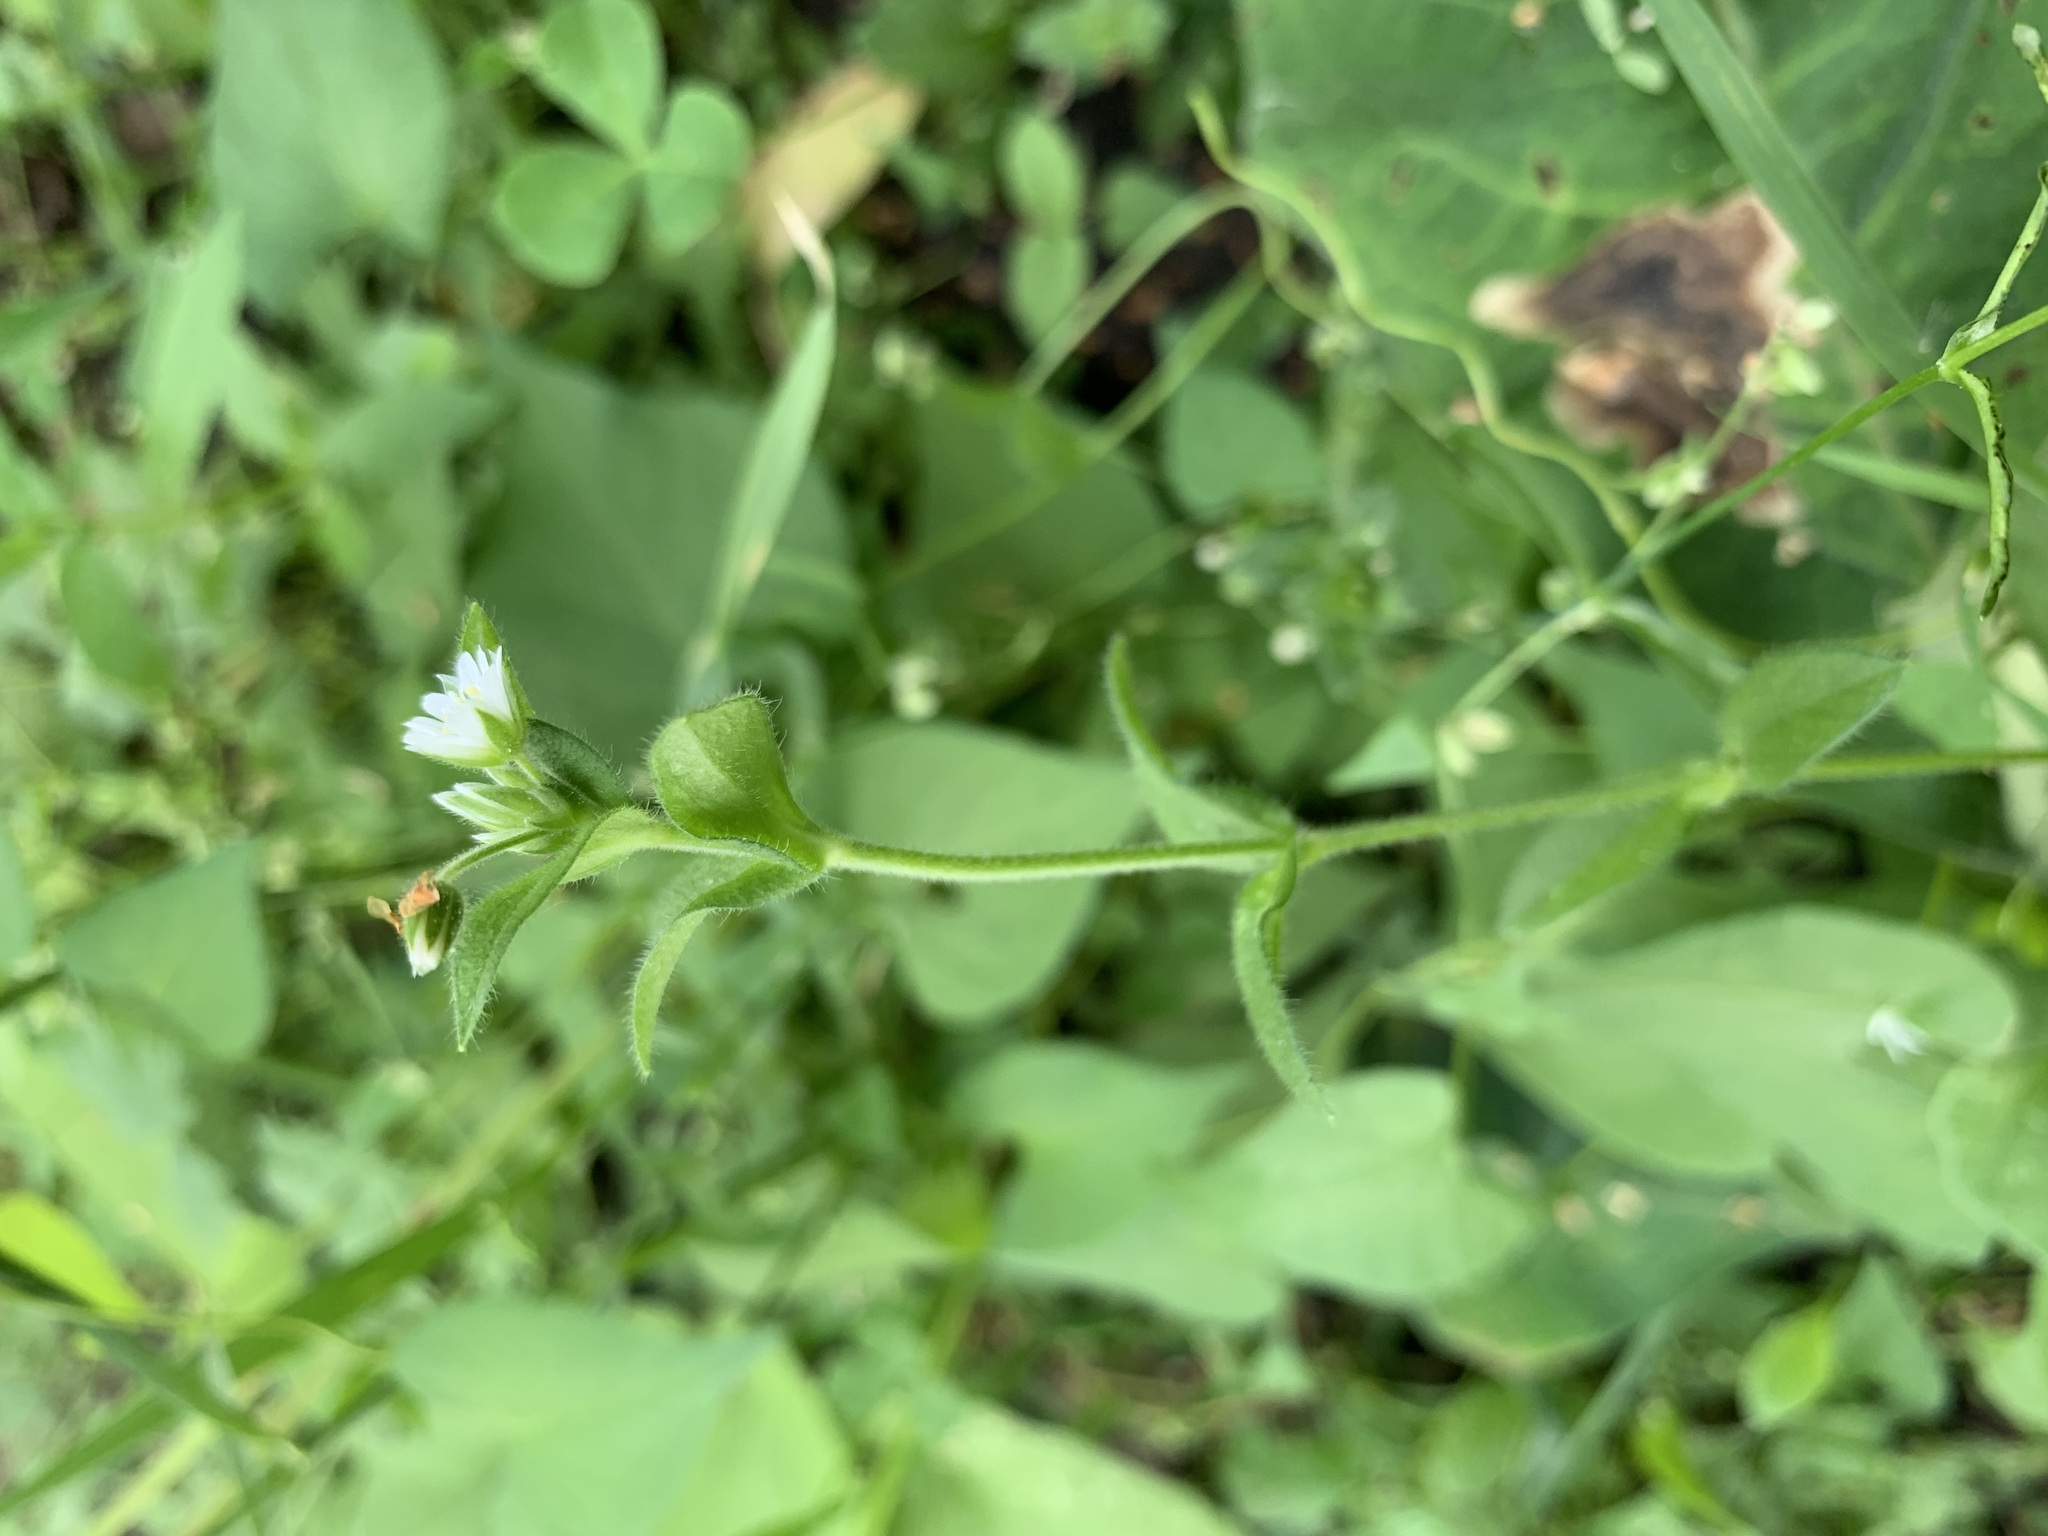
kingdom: Plantae
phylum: Tracheophyta
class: Magnoliopsida
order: Caryophyllales
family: Caryophyllaceae
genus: Cerastium
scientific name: Cerastium holosteoides
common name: Big chickweed
